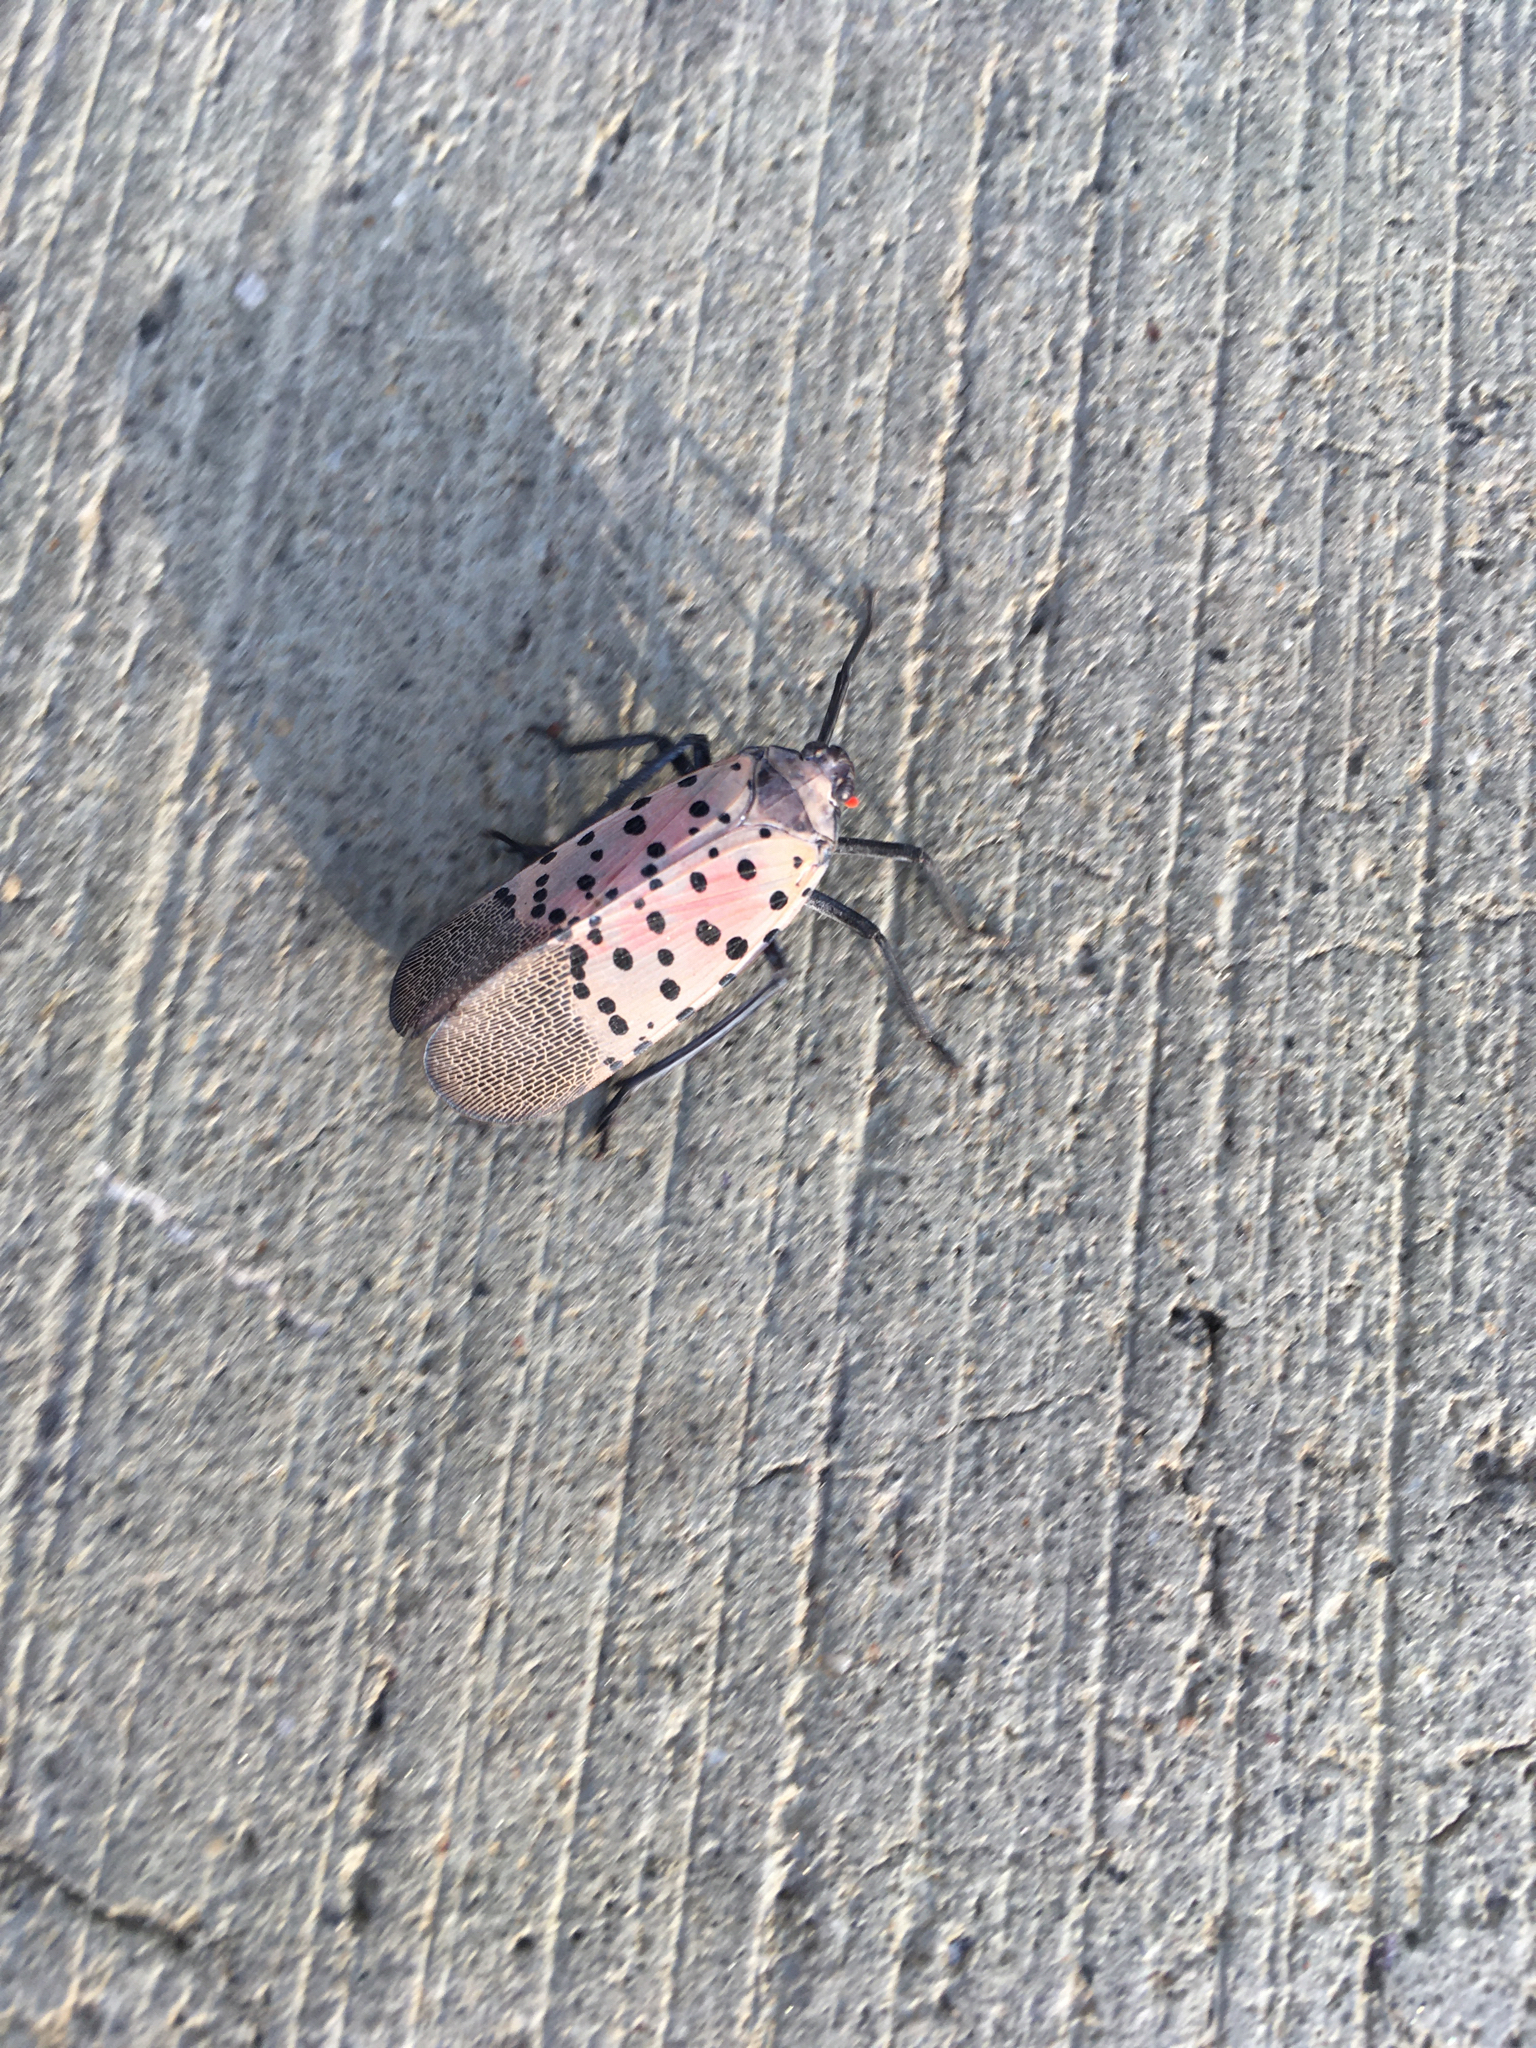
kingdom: Animalia
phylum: Arthropoda
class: Insecta
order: Hemiptera
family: Fulgoridae
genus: Lycorma
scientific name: Lycorma delicatula
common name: Spotted lanternfly
